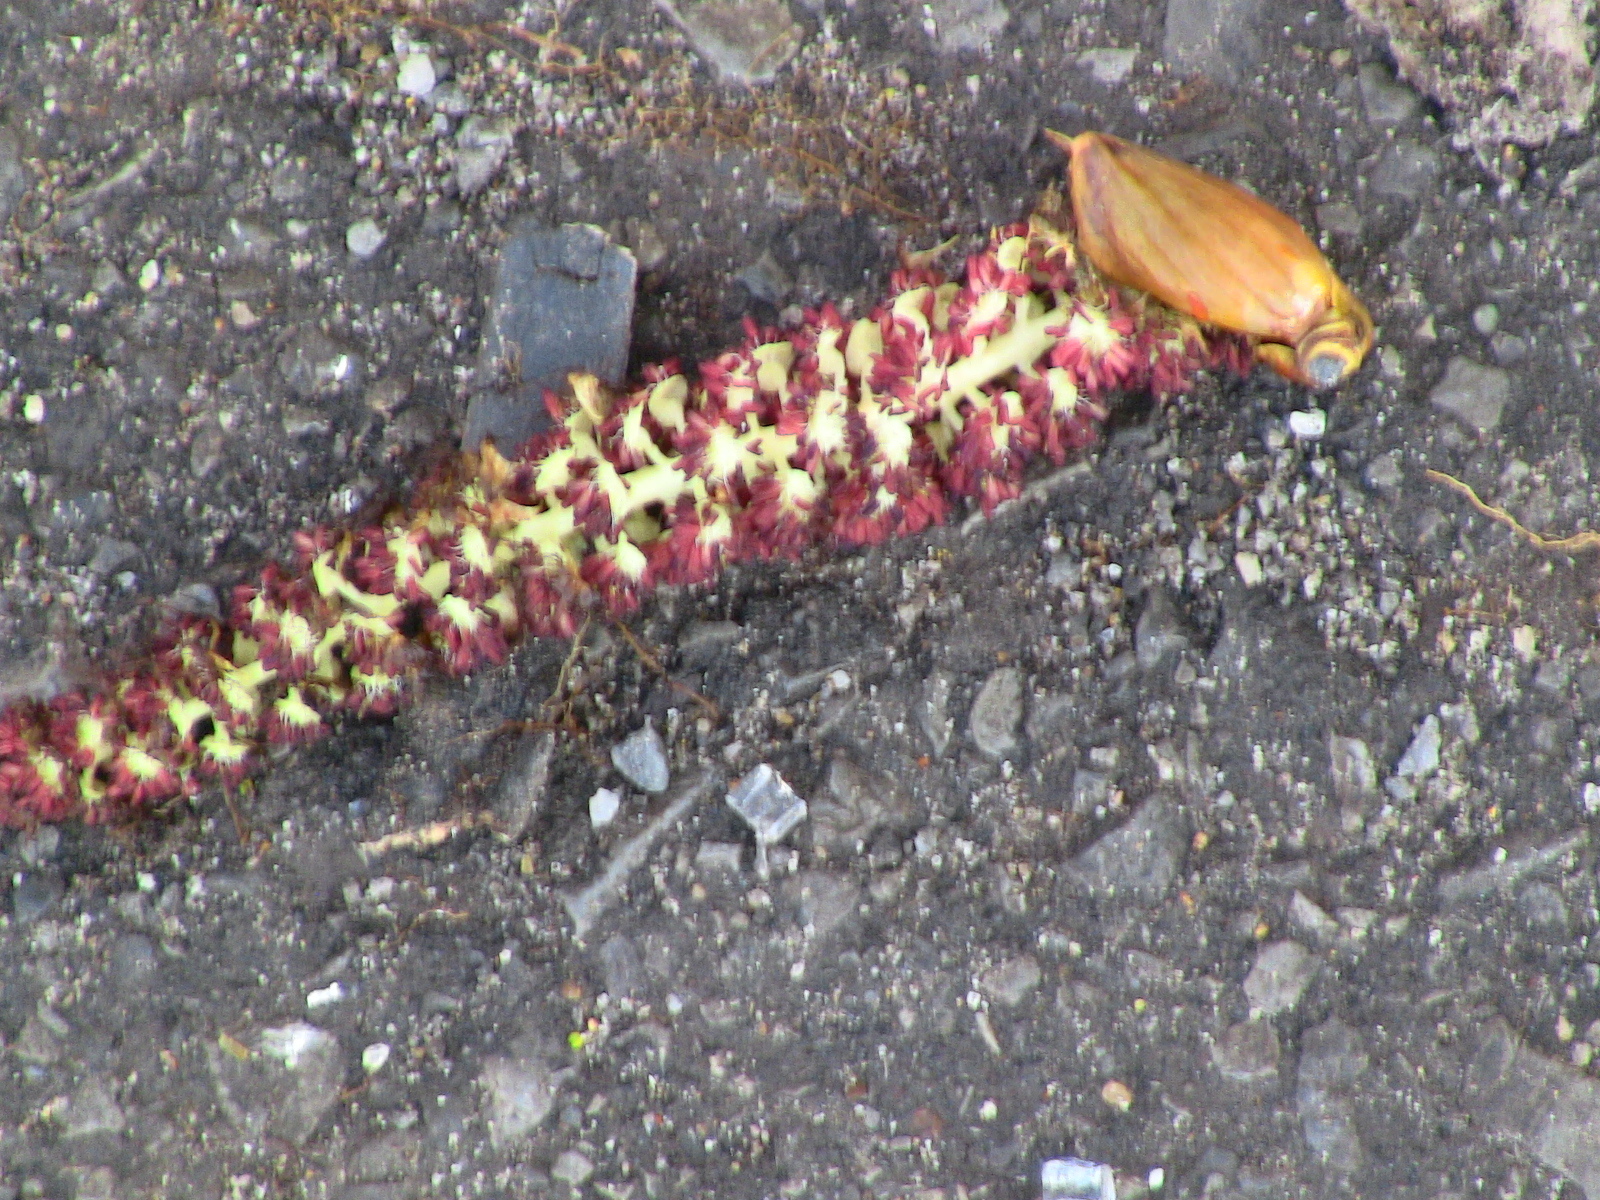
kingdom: Plantae
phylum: Tracheophyta
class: Magnoliopsida
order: Malpighiales
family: Salicaceae
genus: Populus
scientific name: Populus deltoides
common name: Eastern cottonwood
